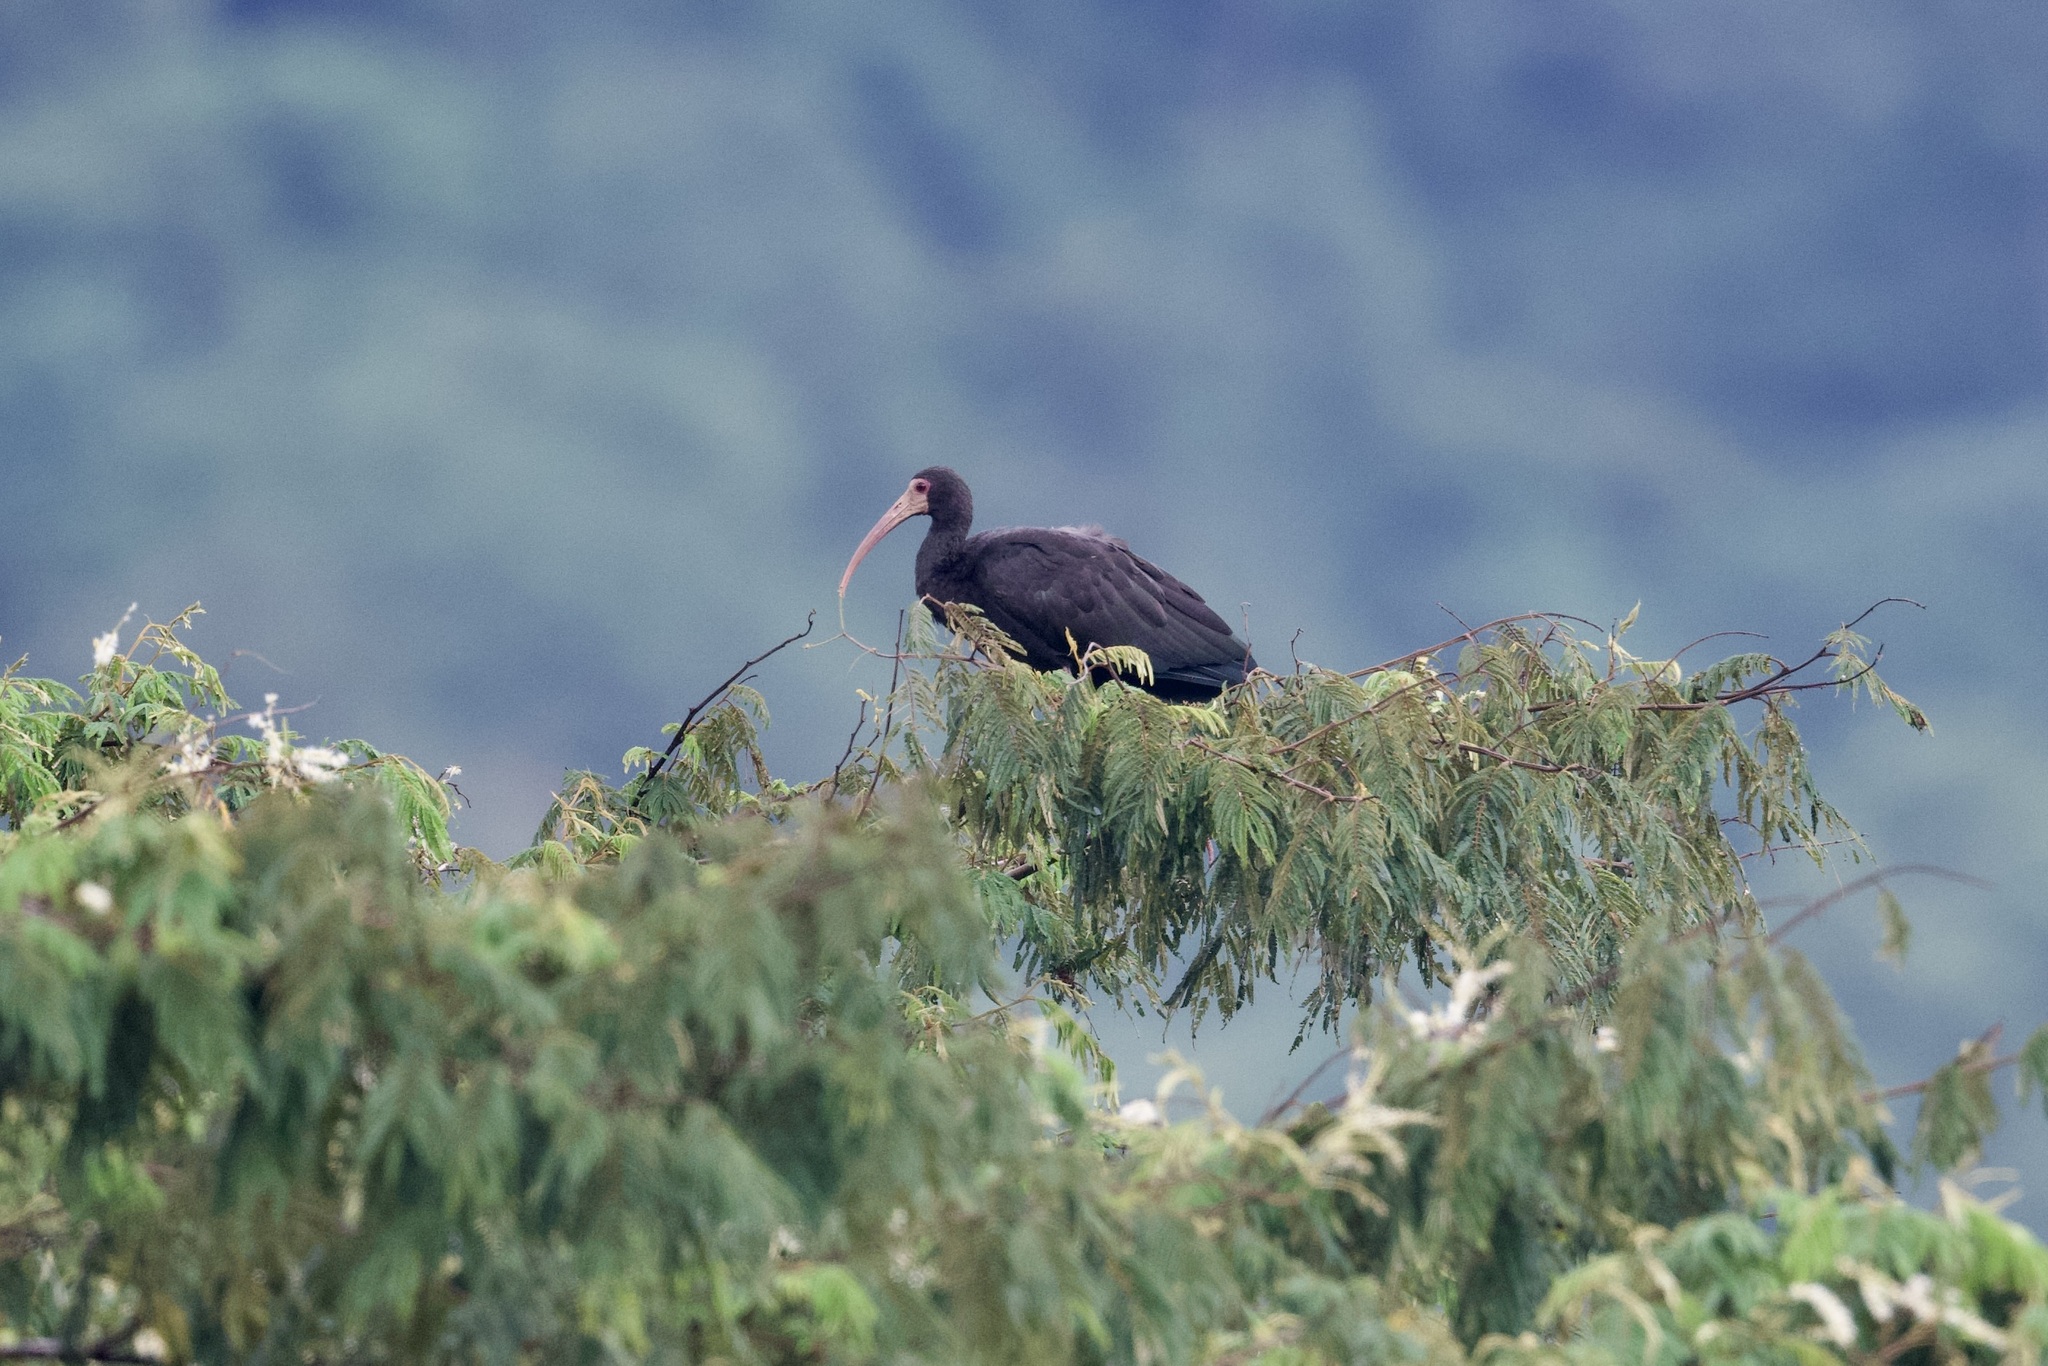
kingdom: Animalia
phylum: Chordata
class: Aves
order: Pelecaniformes
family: Threskiornithidae
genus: Phimosus
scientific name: Phimosus infuscatus
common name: Bare-faced ibis
